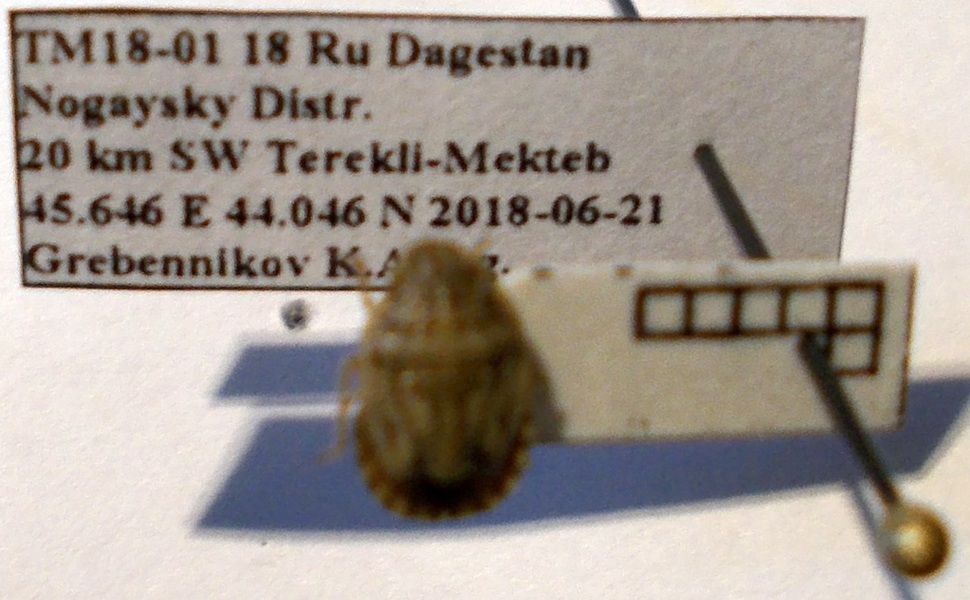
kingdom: Animalia
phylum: Arthropoda
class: Insecta
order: Hemiptera
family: Pentatomidae
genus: Sciocoris
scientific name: Sciocoris deltocephalus
